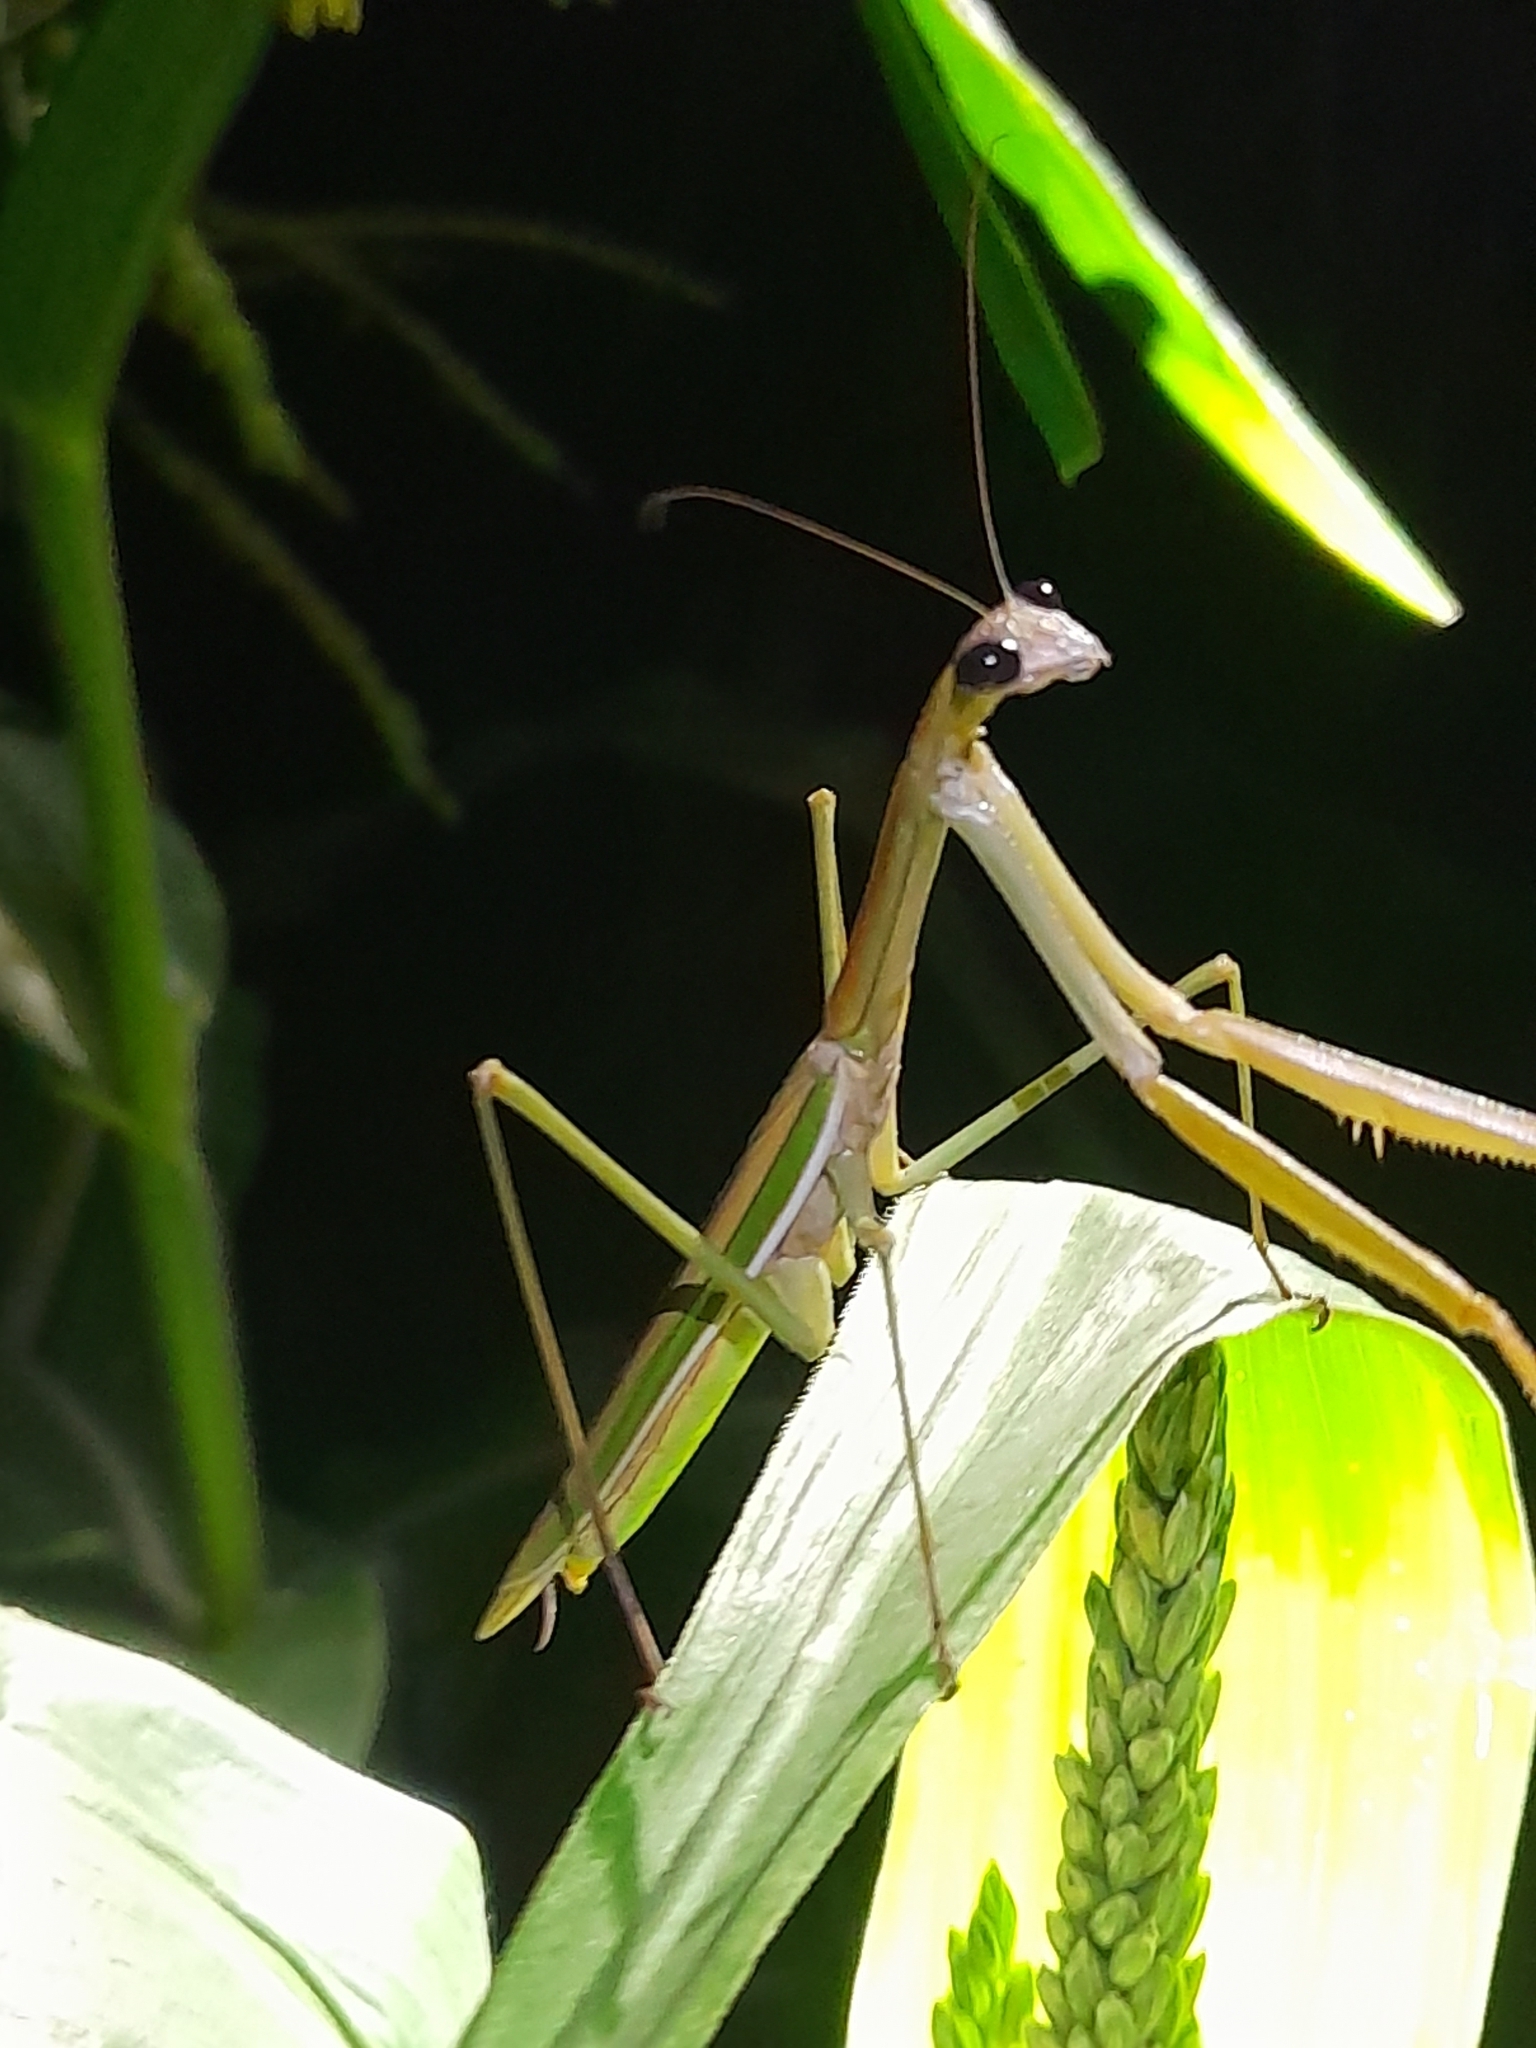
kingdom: Animalia
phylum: Arthropoda
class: Insecta
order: Mantodea
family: Mantidae
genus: Tenodera
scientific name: Tenodera australasiae
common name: Purple-winged mantis
